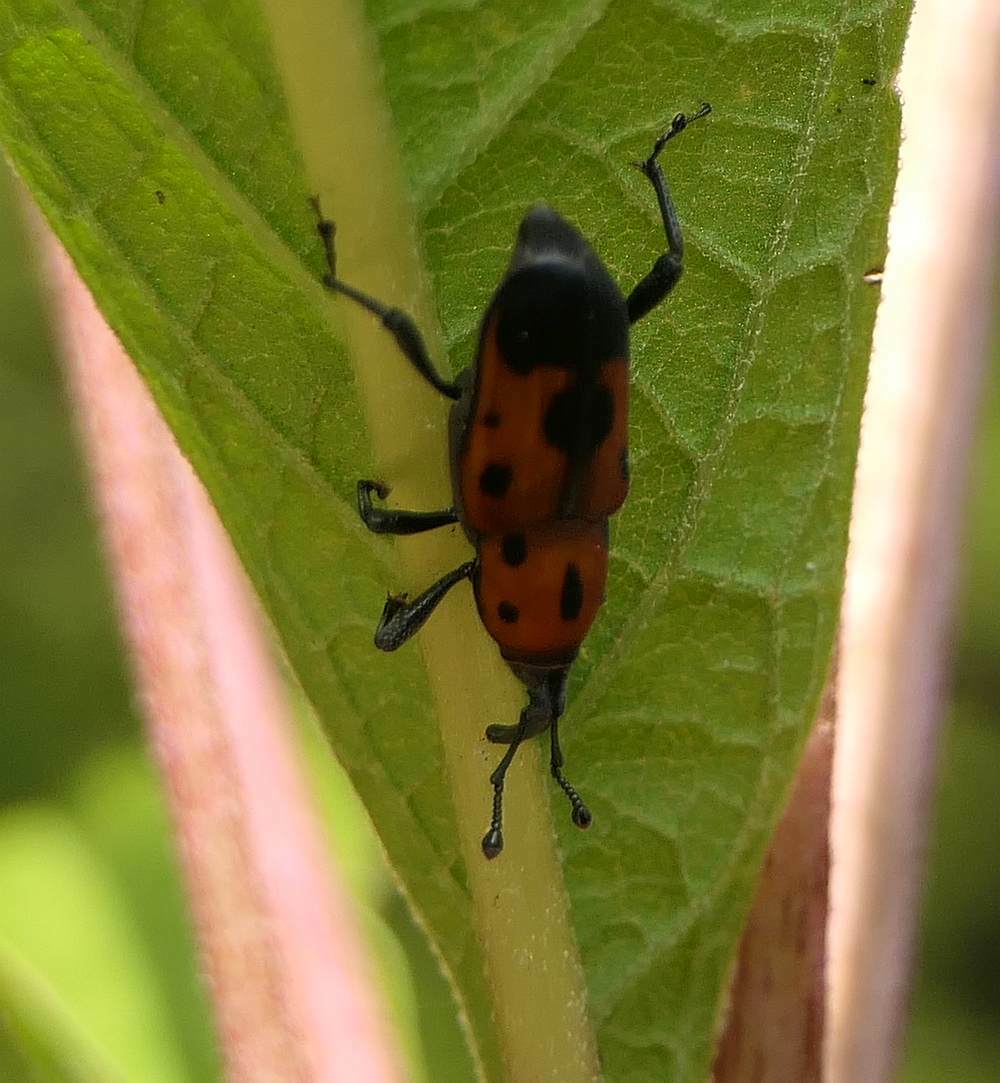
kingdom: Animalia
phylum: Arthropoda
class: Insecta
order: Coleoptera
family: Dryophthoridae
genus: Rhodobaenus
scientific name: Rhodobaenus quinquepunctatus
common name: Cocklebur weevil
